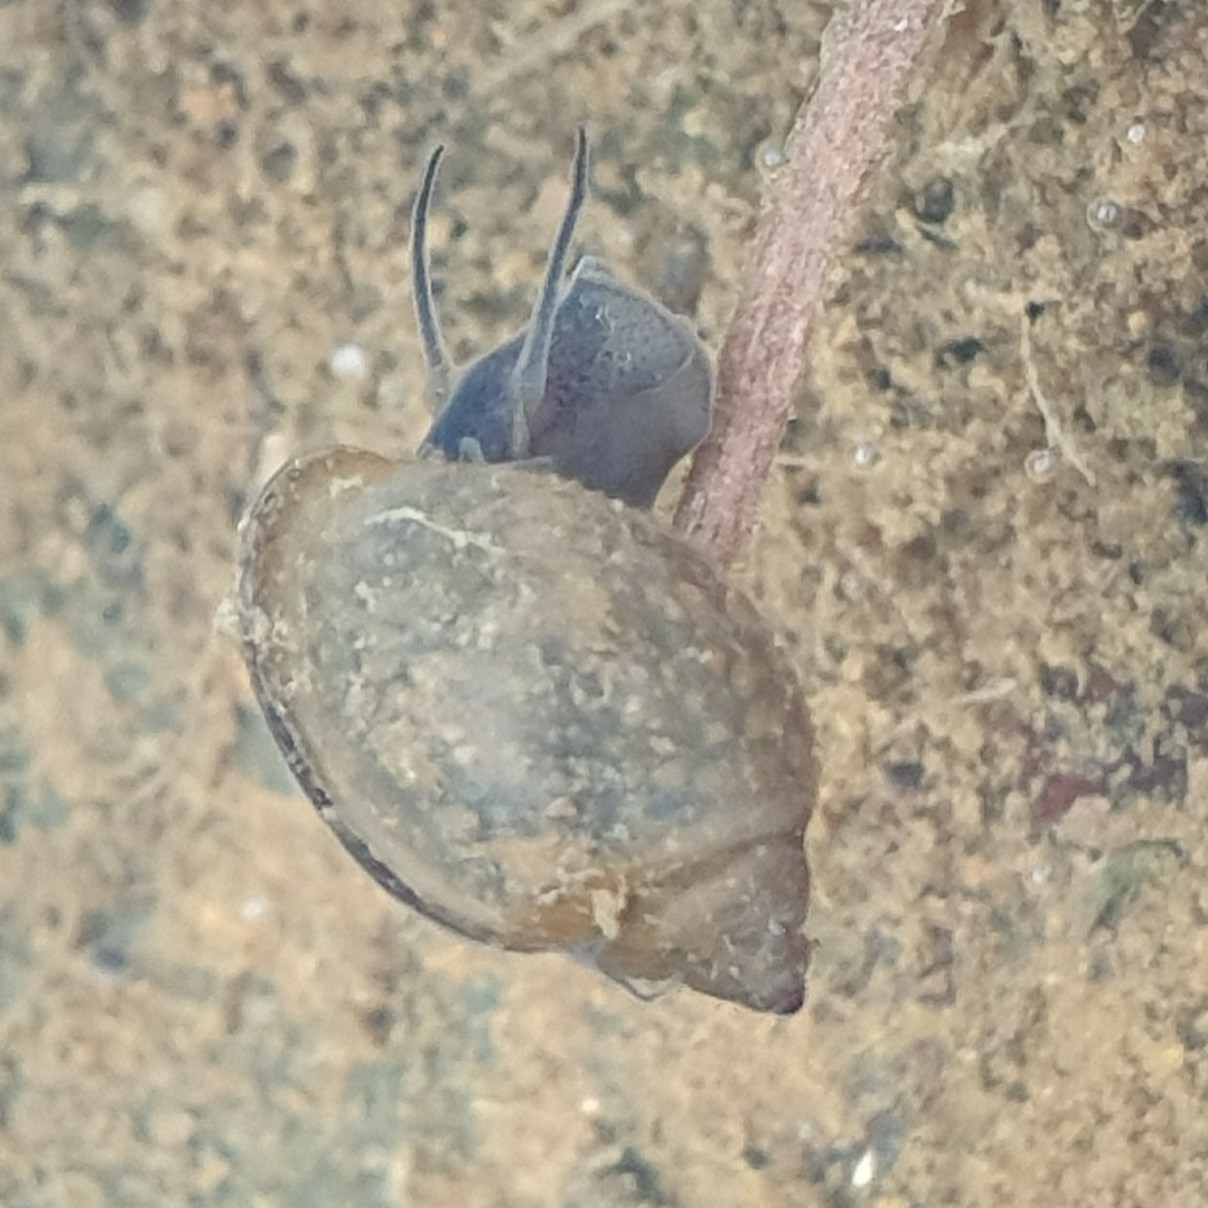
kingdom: Animalia
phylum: Mollusca
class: Gastropoda
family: Physidae
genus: Physella
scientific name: Physella acuta
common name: European physa
